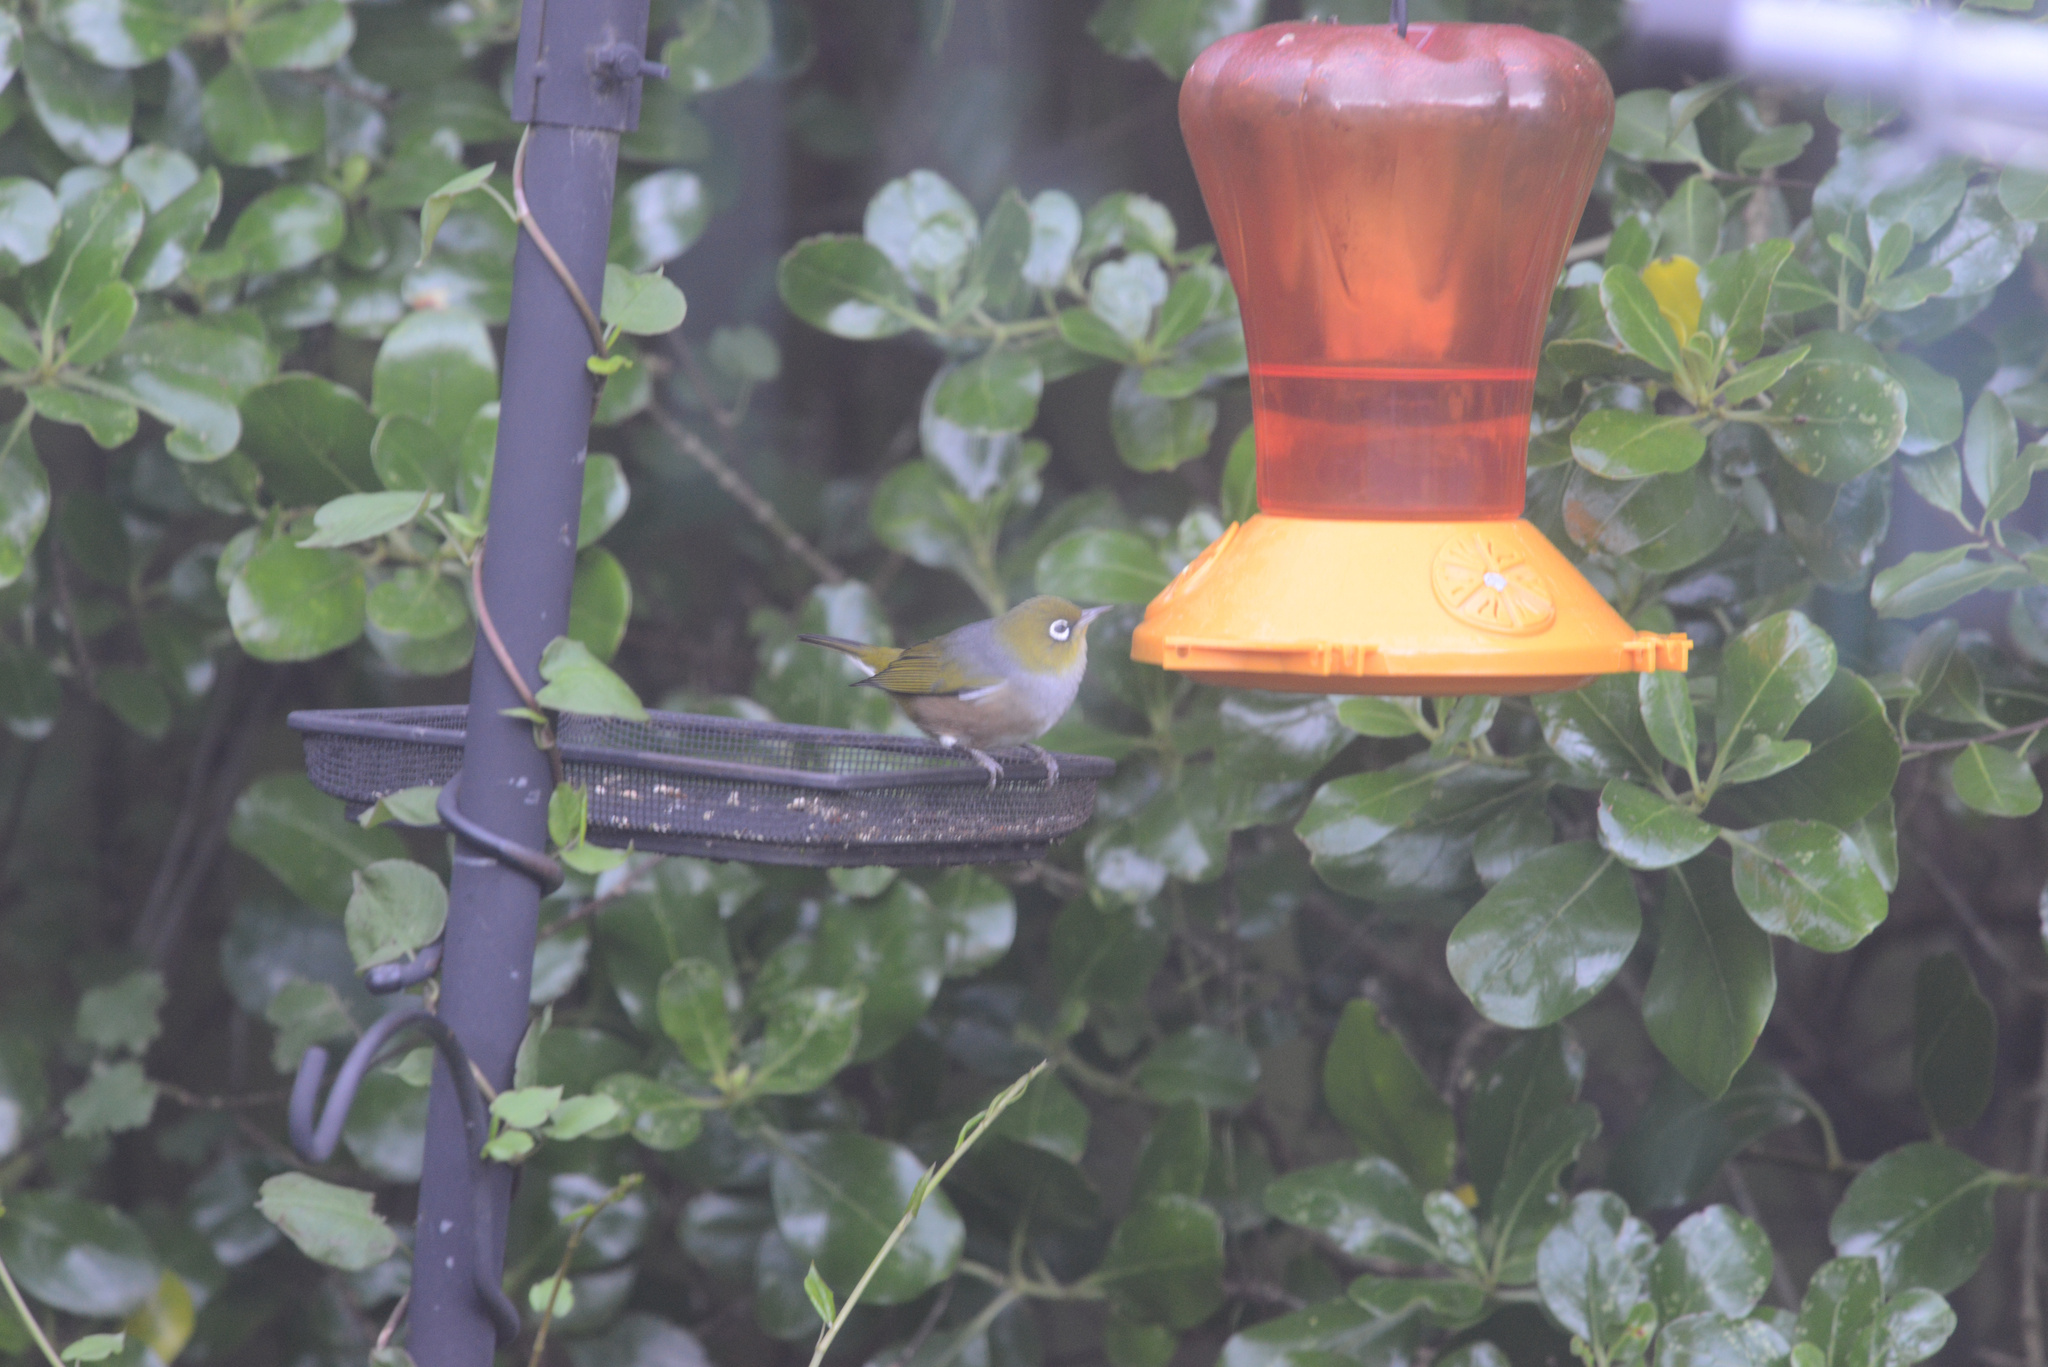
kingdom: Animalia
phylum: Chordata
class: Aves
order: Passeriformes
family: Zosteropidae
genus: Zosterops
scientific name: Zosterops lateralis
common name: Silvereye
